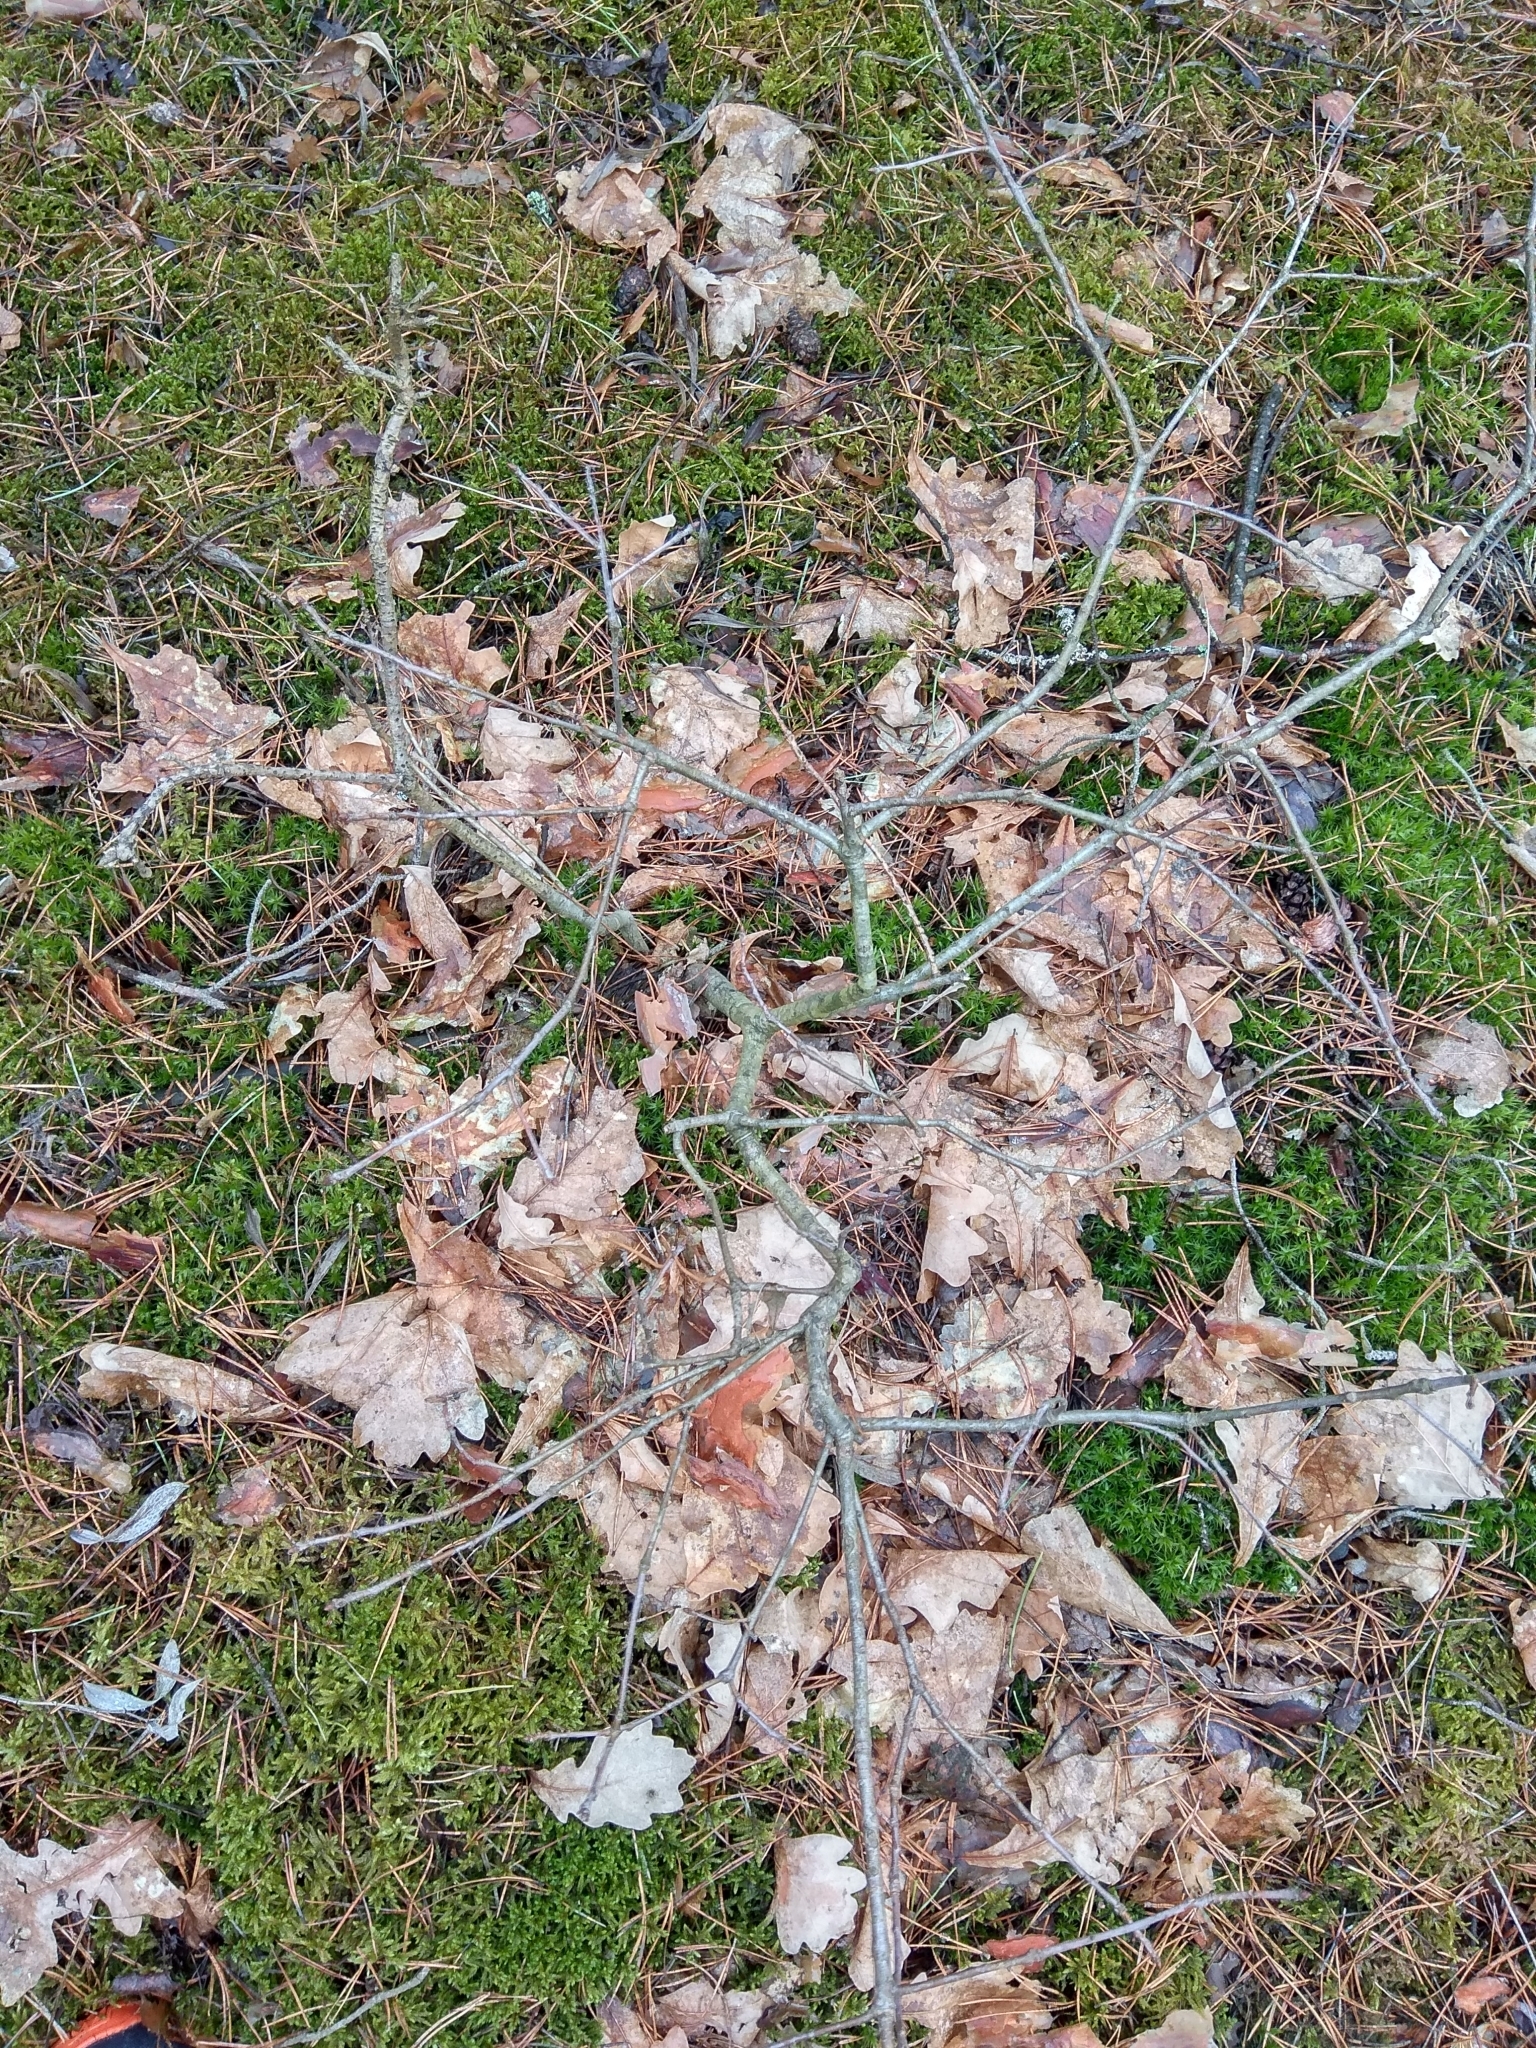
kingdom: Plantae
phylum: Tracheophyta
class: Magnoliopsida
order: Fagales
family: Fagaceae
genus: Quercus
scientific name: Quercus robur
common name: Pedunculate oak
